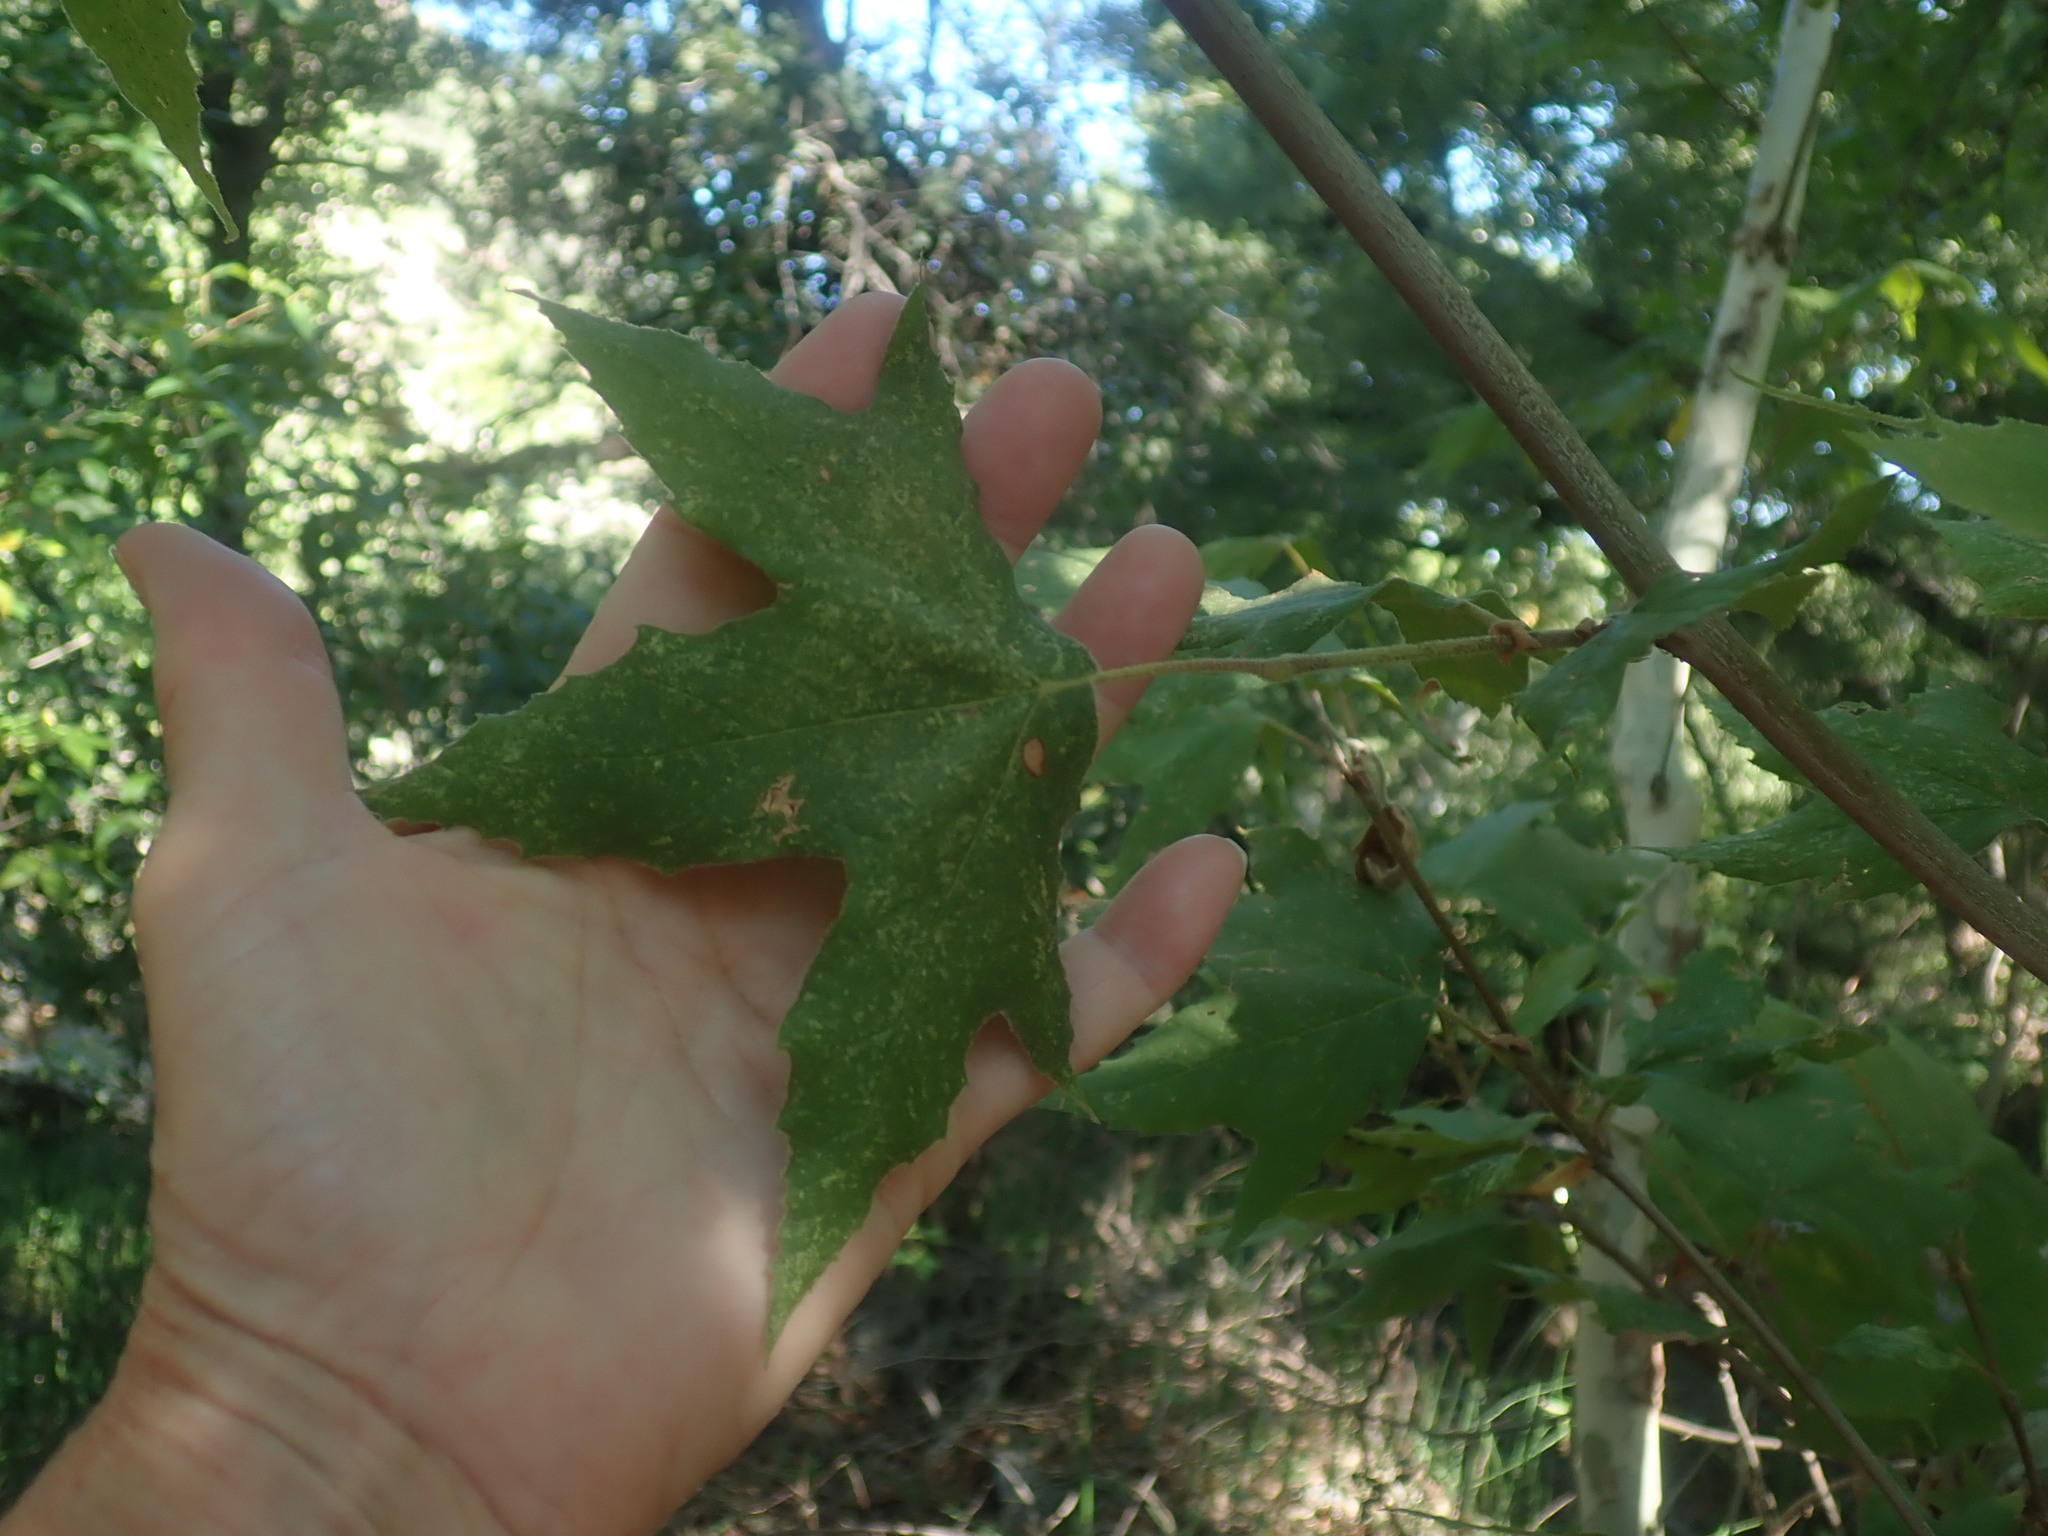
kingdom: Plantae
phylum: Tracheophyta
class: Magnoliopsida
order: Proteales
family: Platanaceae
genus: Platanus
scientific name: Platanus wrightii
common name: Arizona sycamore
